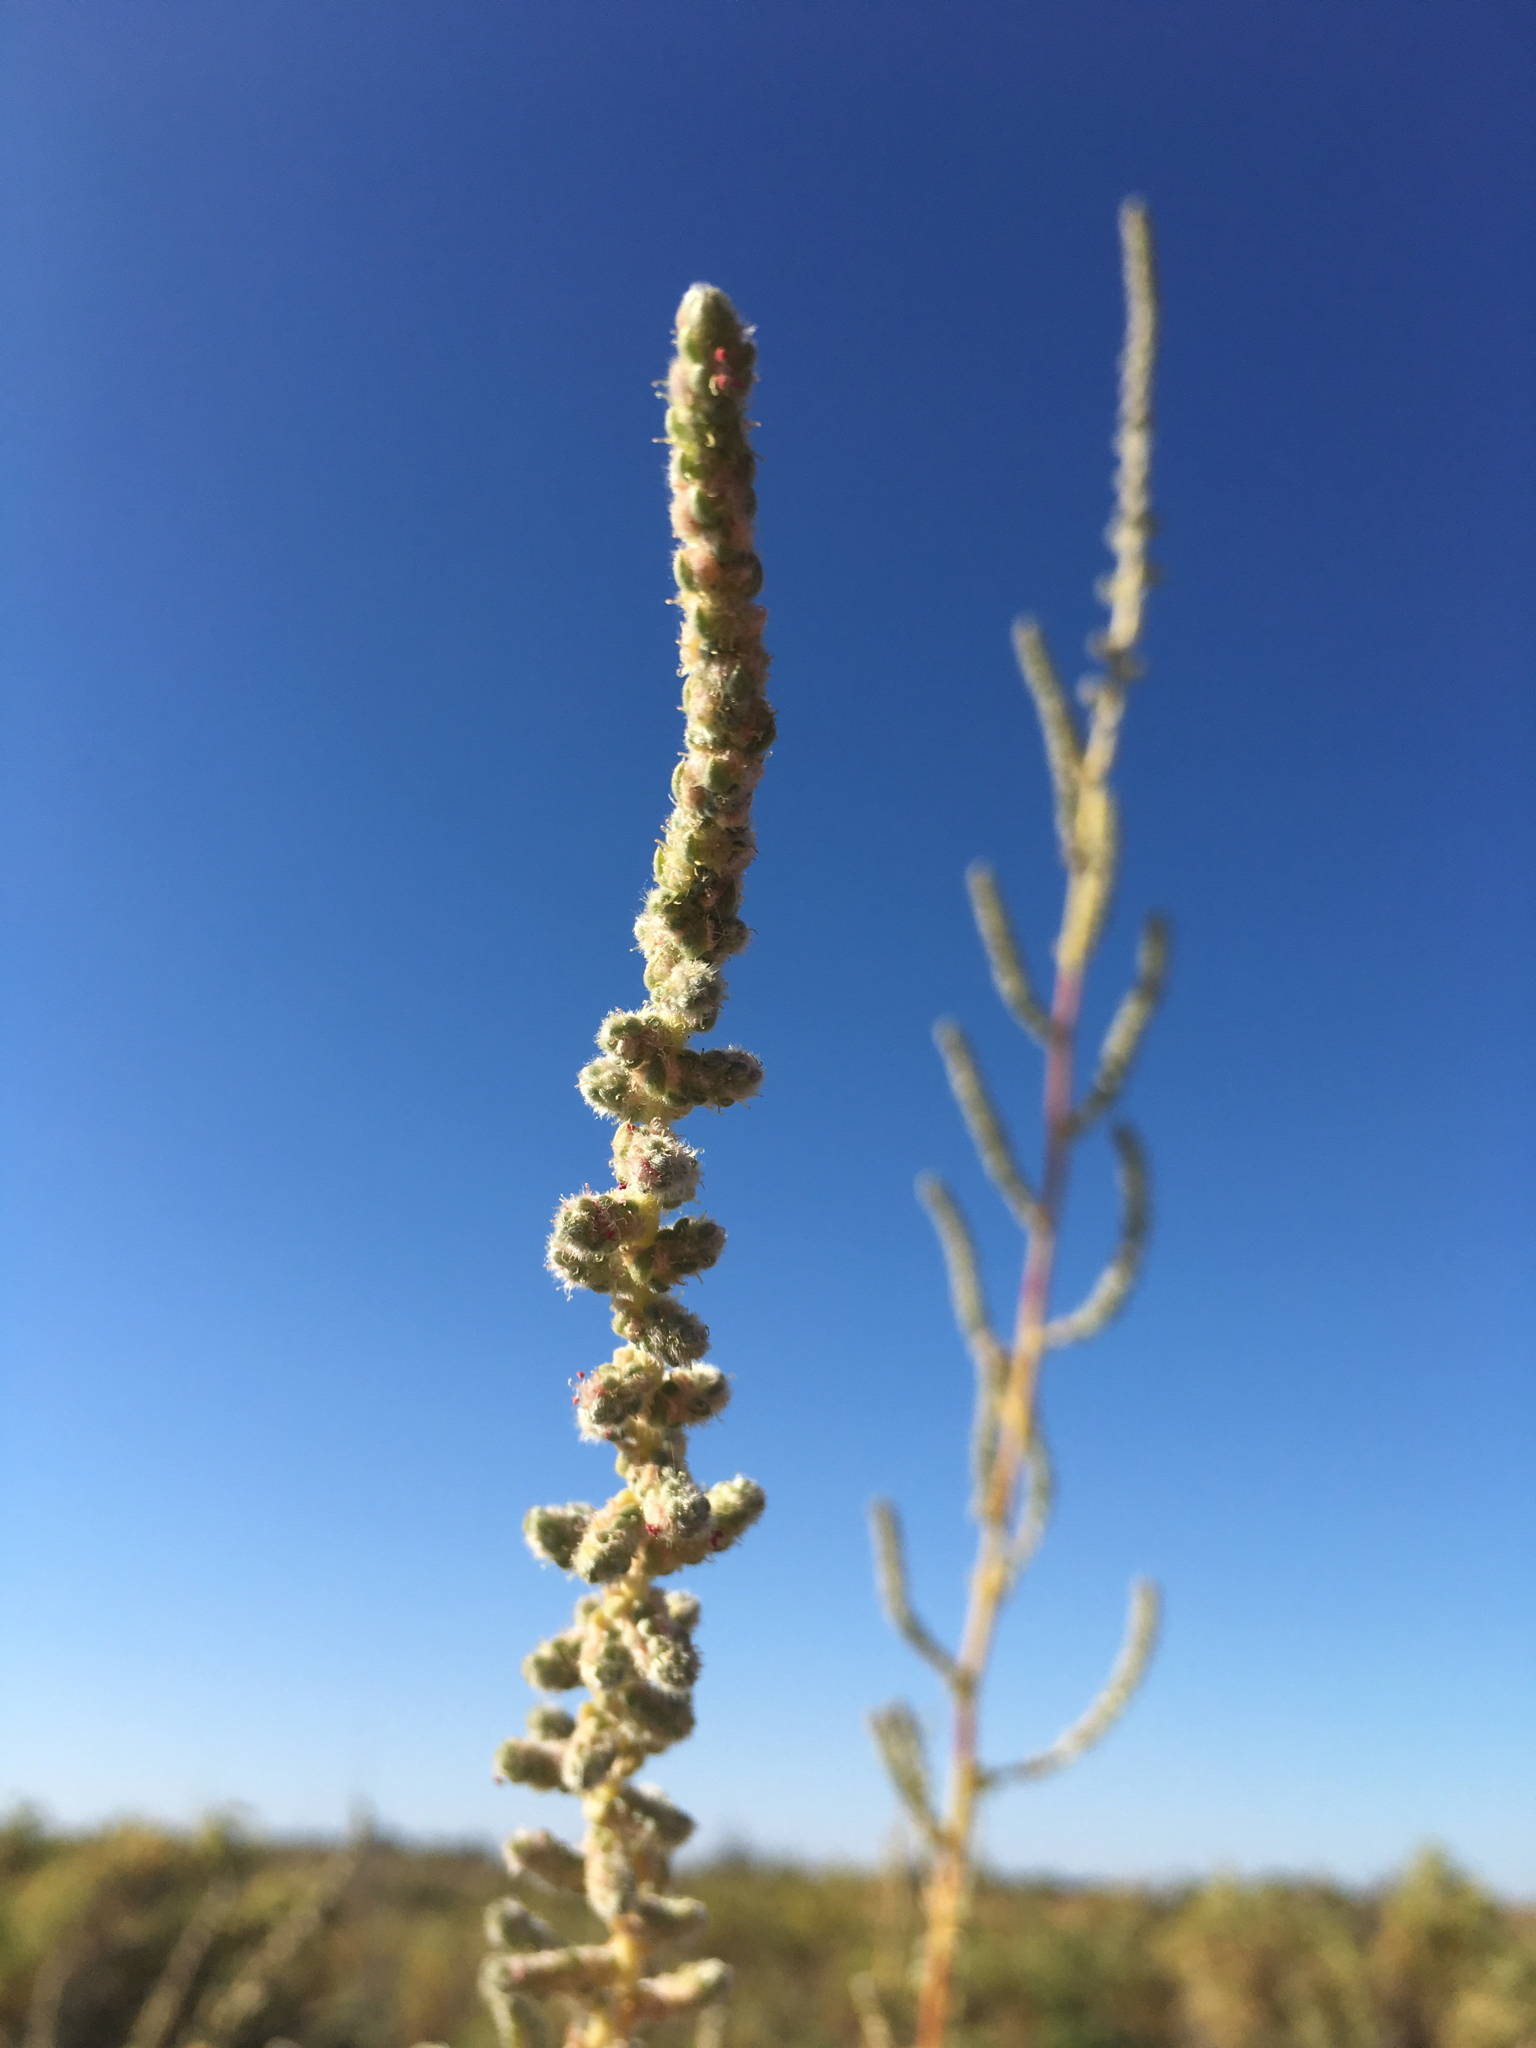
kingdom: Plantae
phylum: Tracheophyta
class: Magnoliopsida
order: Caryophyllales
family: Amaranthaceae
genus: Bassia
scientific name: Bassia hyssopifolia
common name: Fivehorn smotherweed
